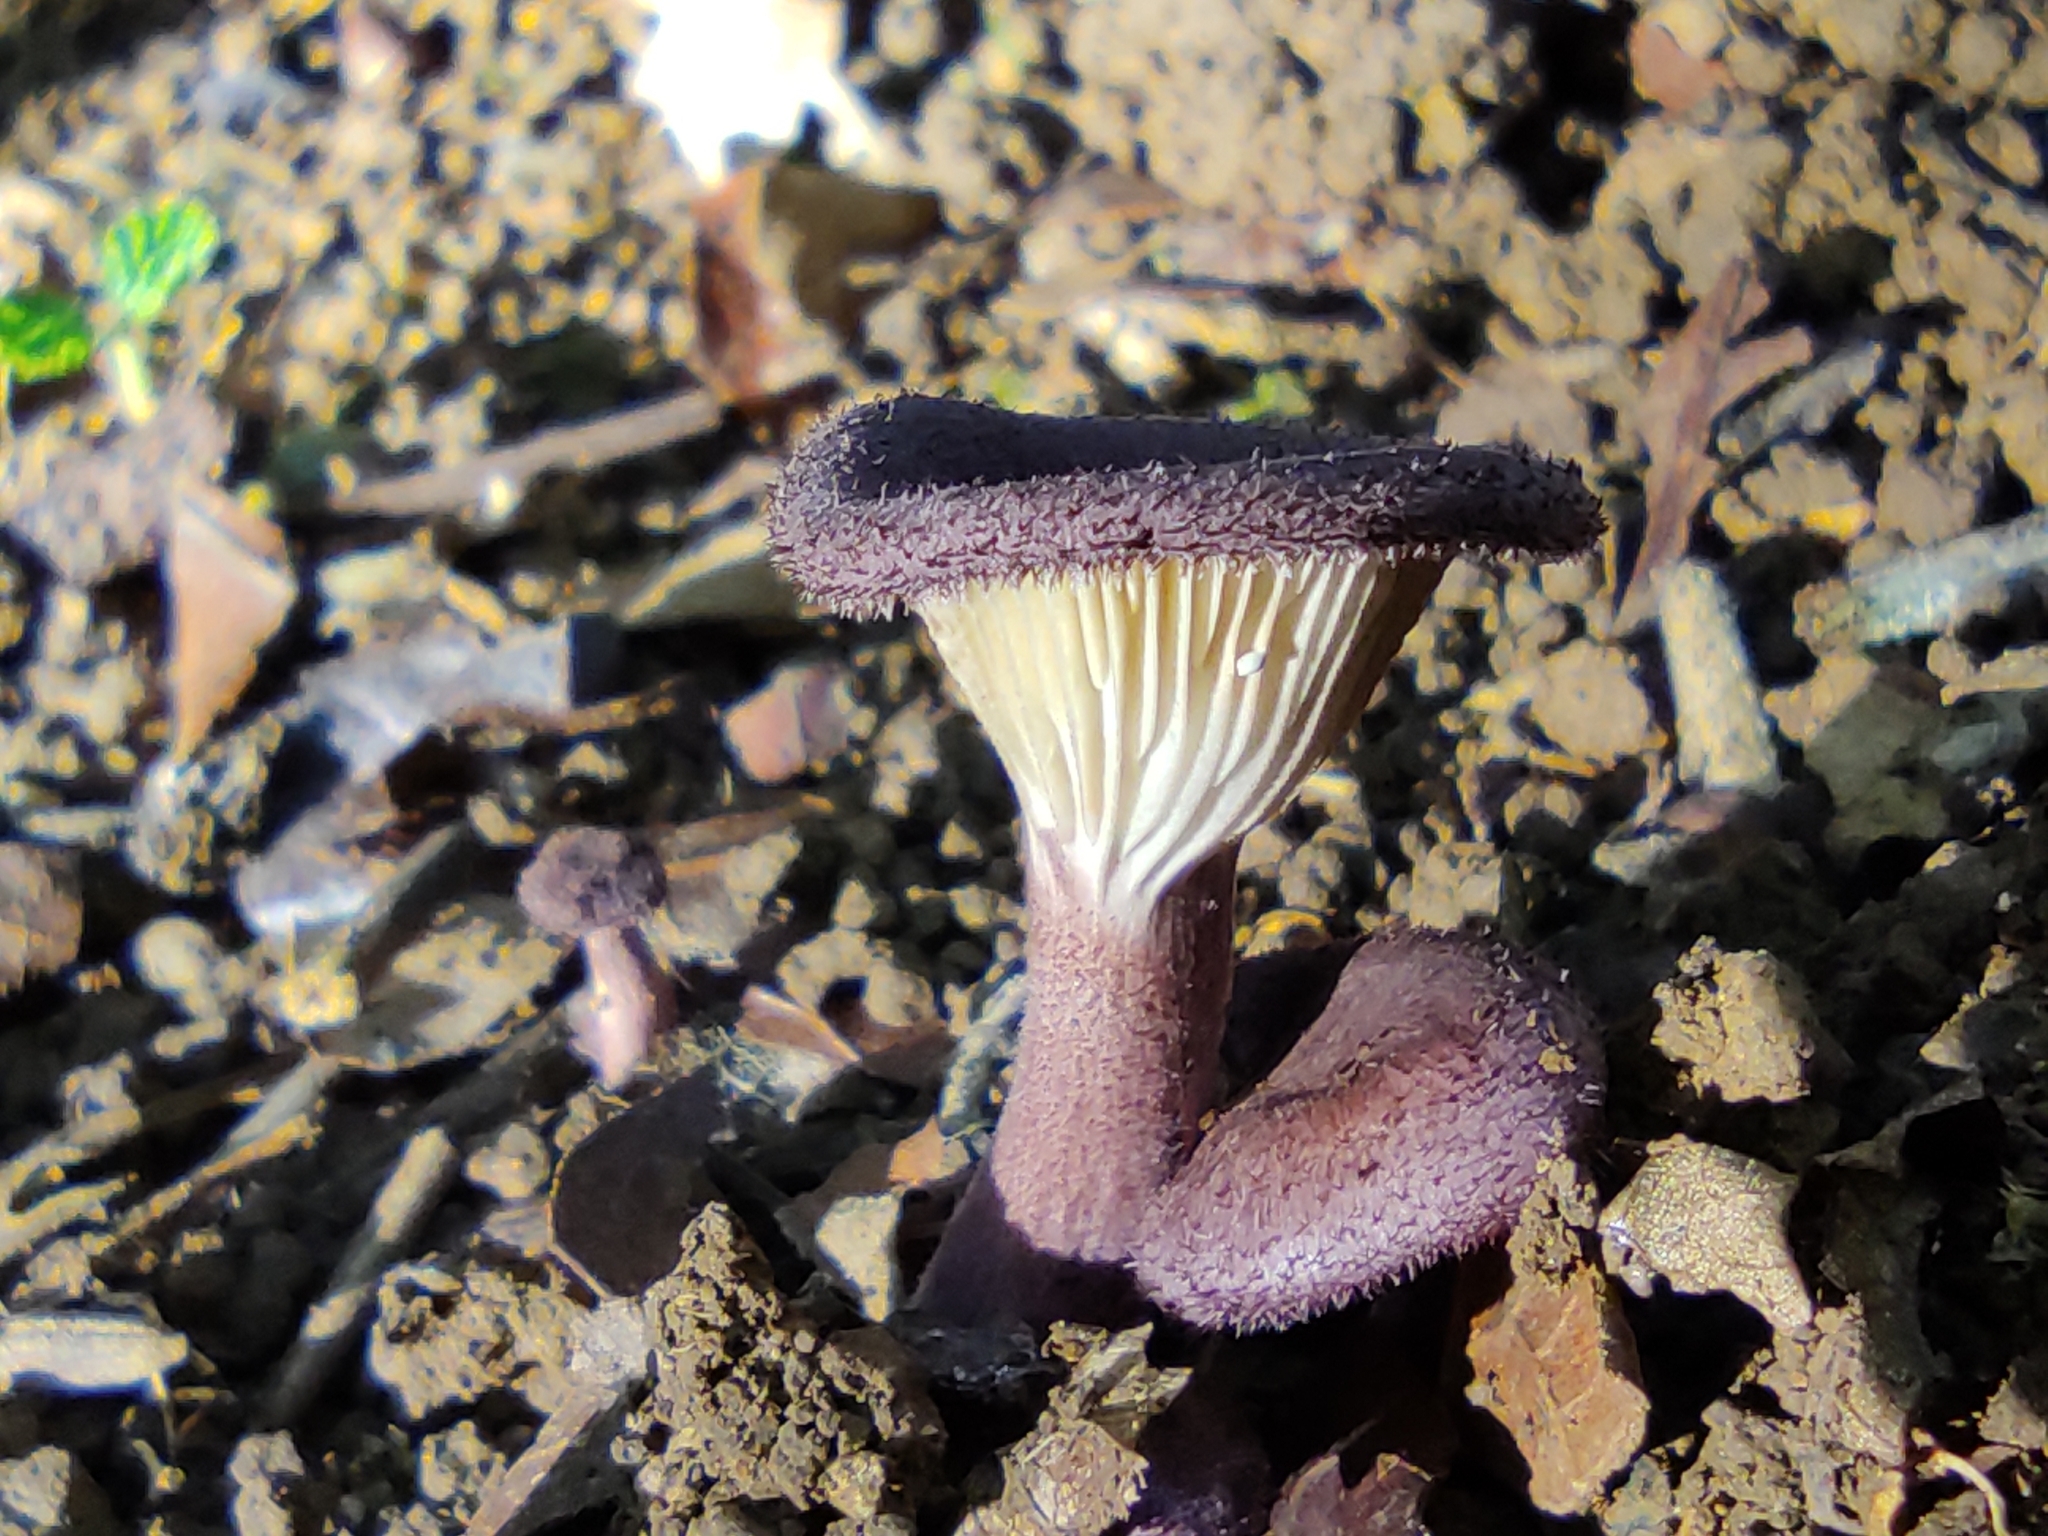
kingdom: Fungi
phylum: Basidiomycota
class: Agaricomycetes
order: Polyporales
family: Panaceae
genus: Panus
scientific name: Panus neostrigosus
